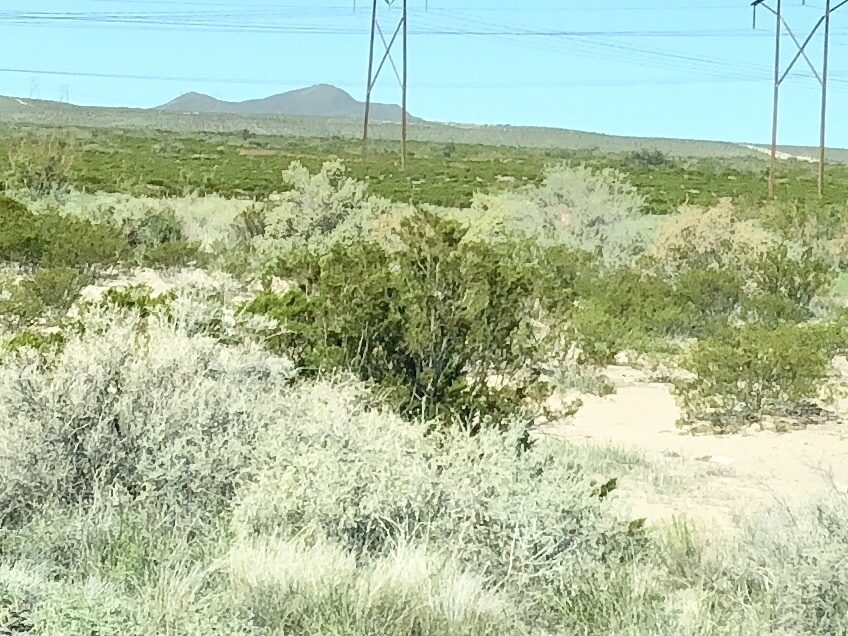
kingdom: Plantae
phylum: Tracheophyta
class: Magnoliopsida
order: Zygophyllales
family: Zygophyllaceae
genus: Larrea
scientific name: Larrea tridentata
